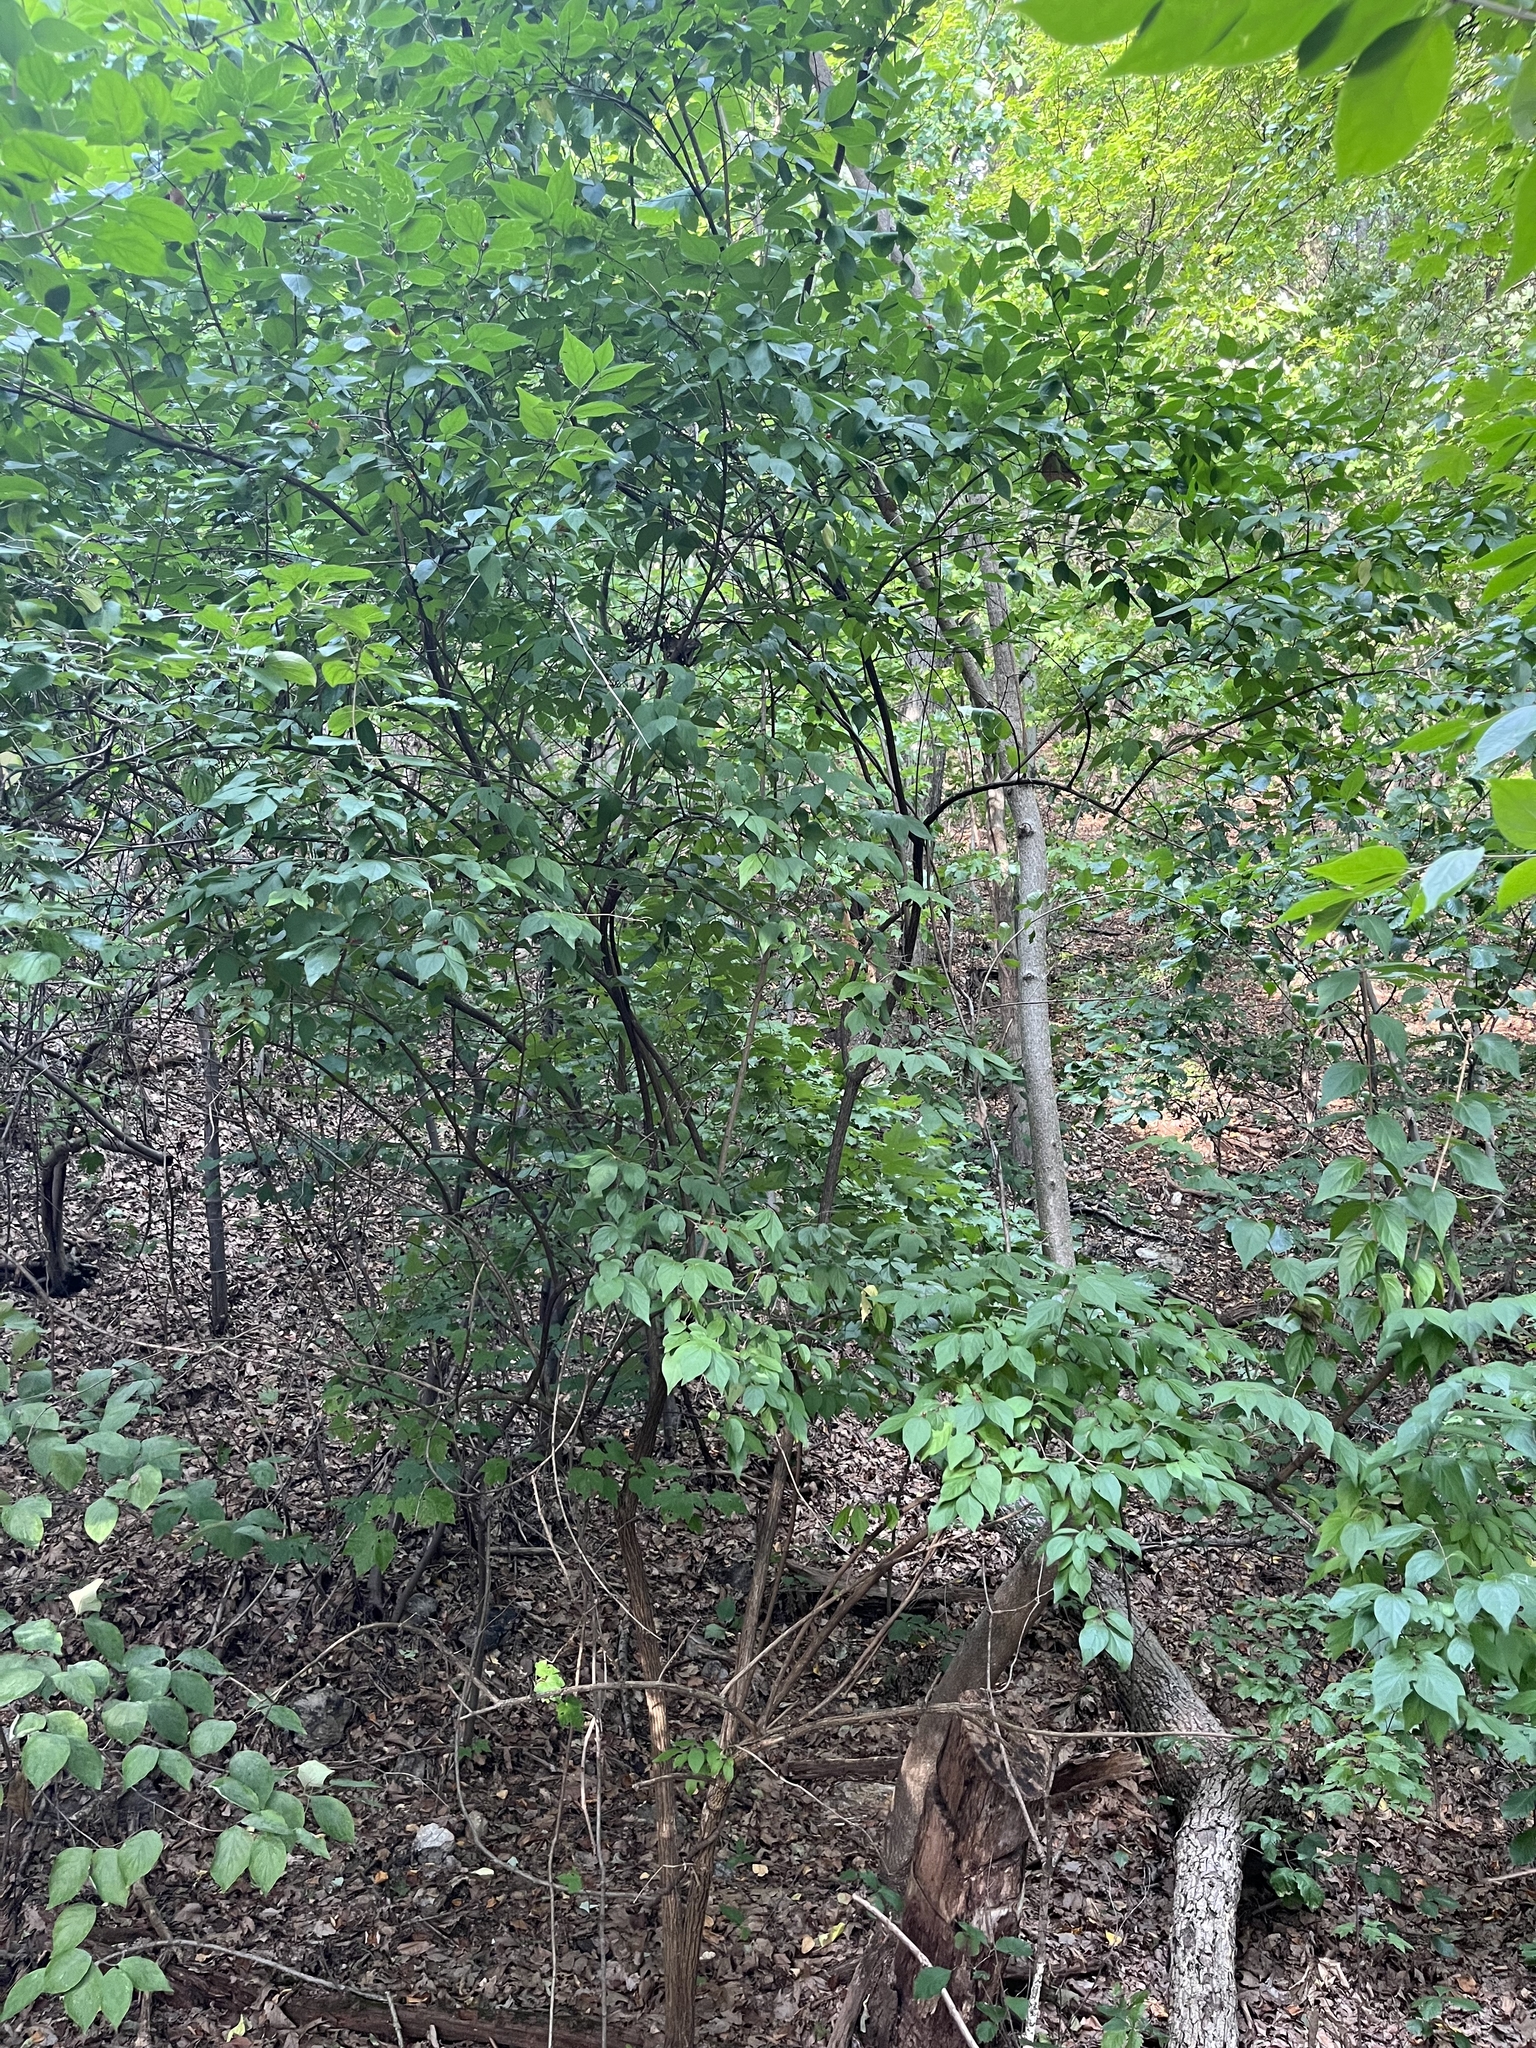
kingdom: Plantae
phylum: Tracheophyta
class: Magnoliopsida
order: Dipsacales
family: Caprifoliaceae
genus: Lonicera
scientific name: Lonicera maackii
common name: Amur honeysuckle
